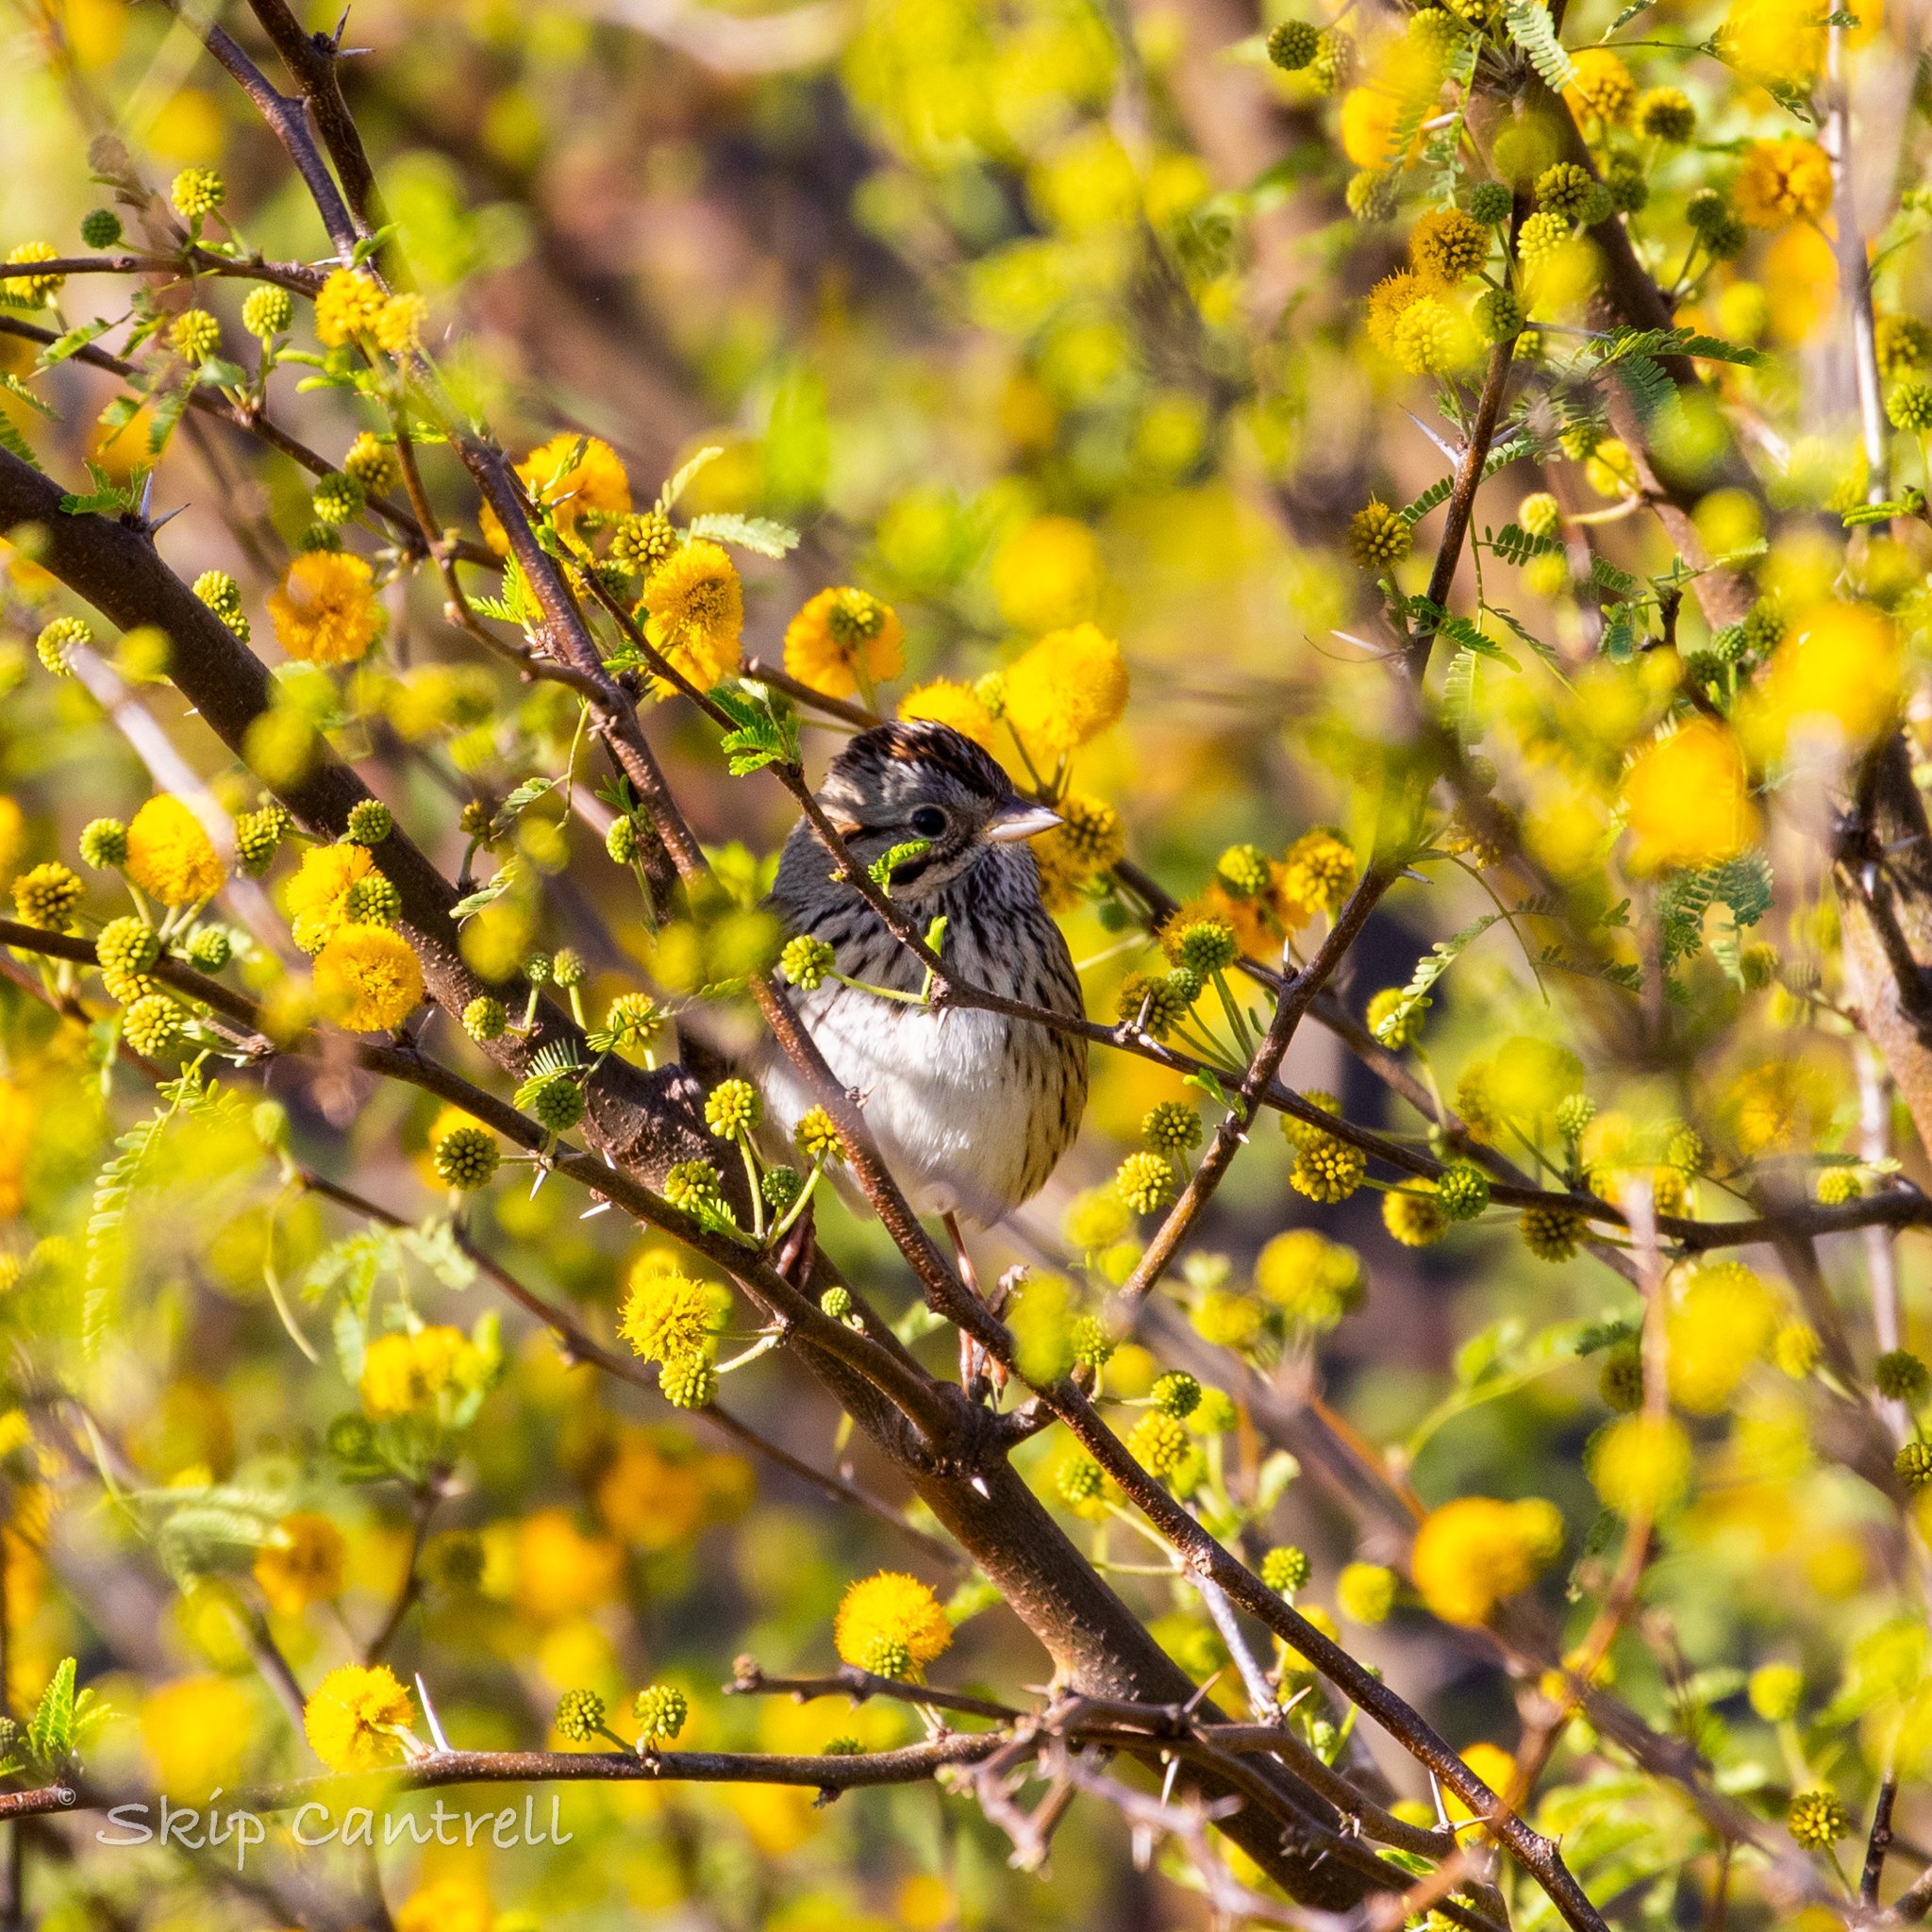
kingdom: Animalia
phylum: Chordata
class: Aves
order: Passeriformes
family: Passerellidae
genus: Melospiza
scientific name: Melospiza lincolnii
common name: Lincoln's sparrow
